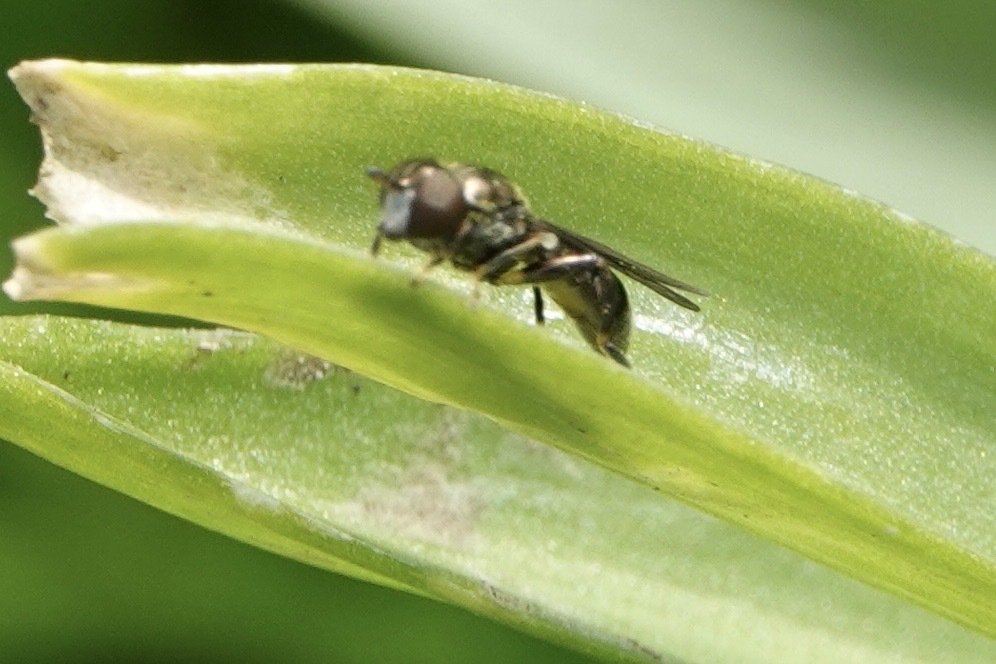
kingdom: Animalia
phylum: Arthropoda
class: Insecta
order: Diptera
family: Syrphidae
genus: Neoascia
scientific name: Neoascia
